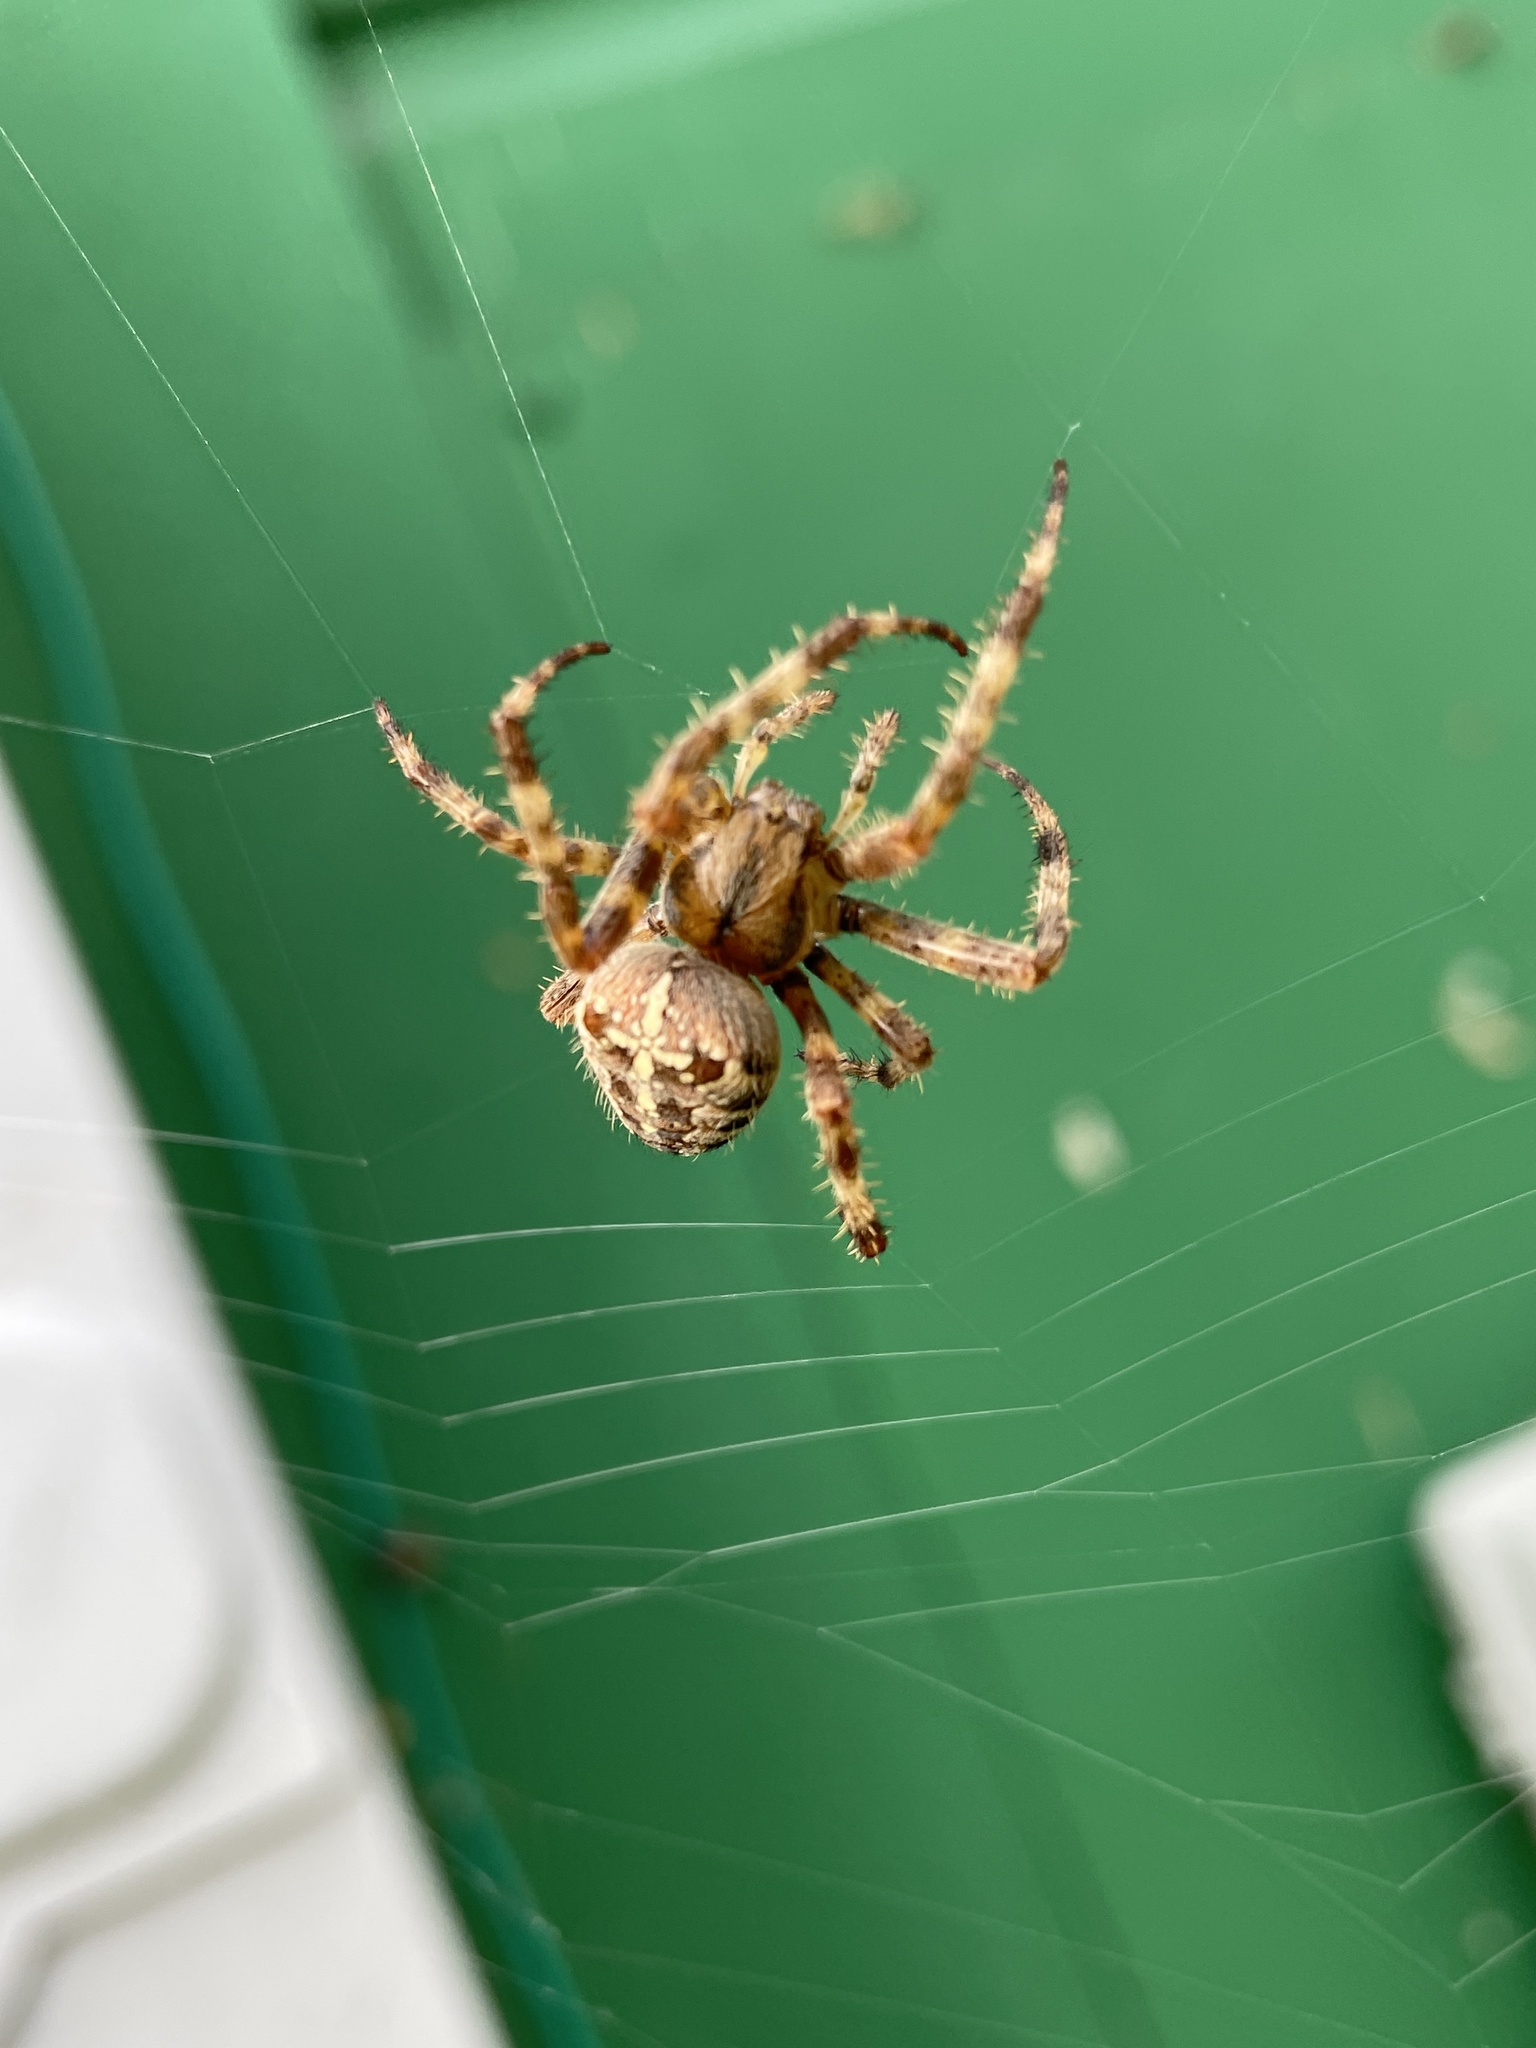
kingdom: Animalia
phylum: Arthropoda
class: Arachnida
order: Araneae
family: Araneidae
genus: Araneus
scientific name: Araneus diadematus
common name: Cross orbweaver
